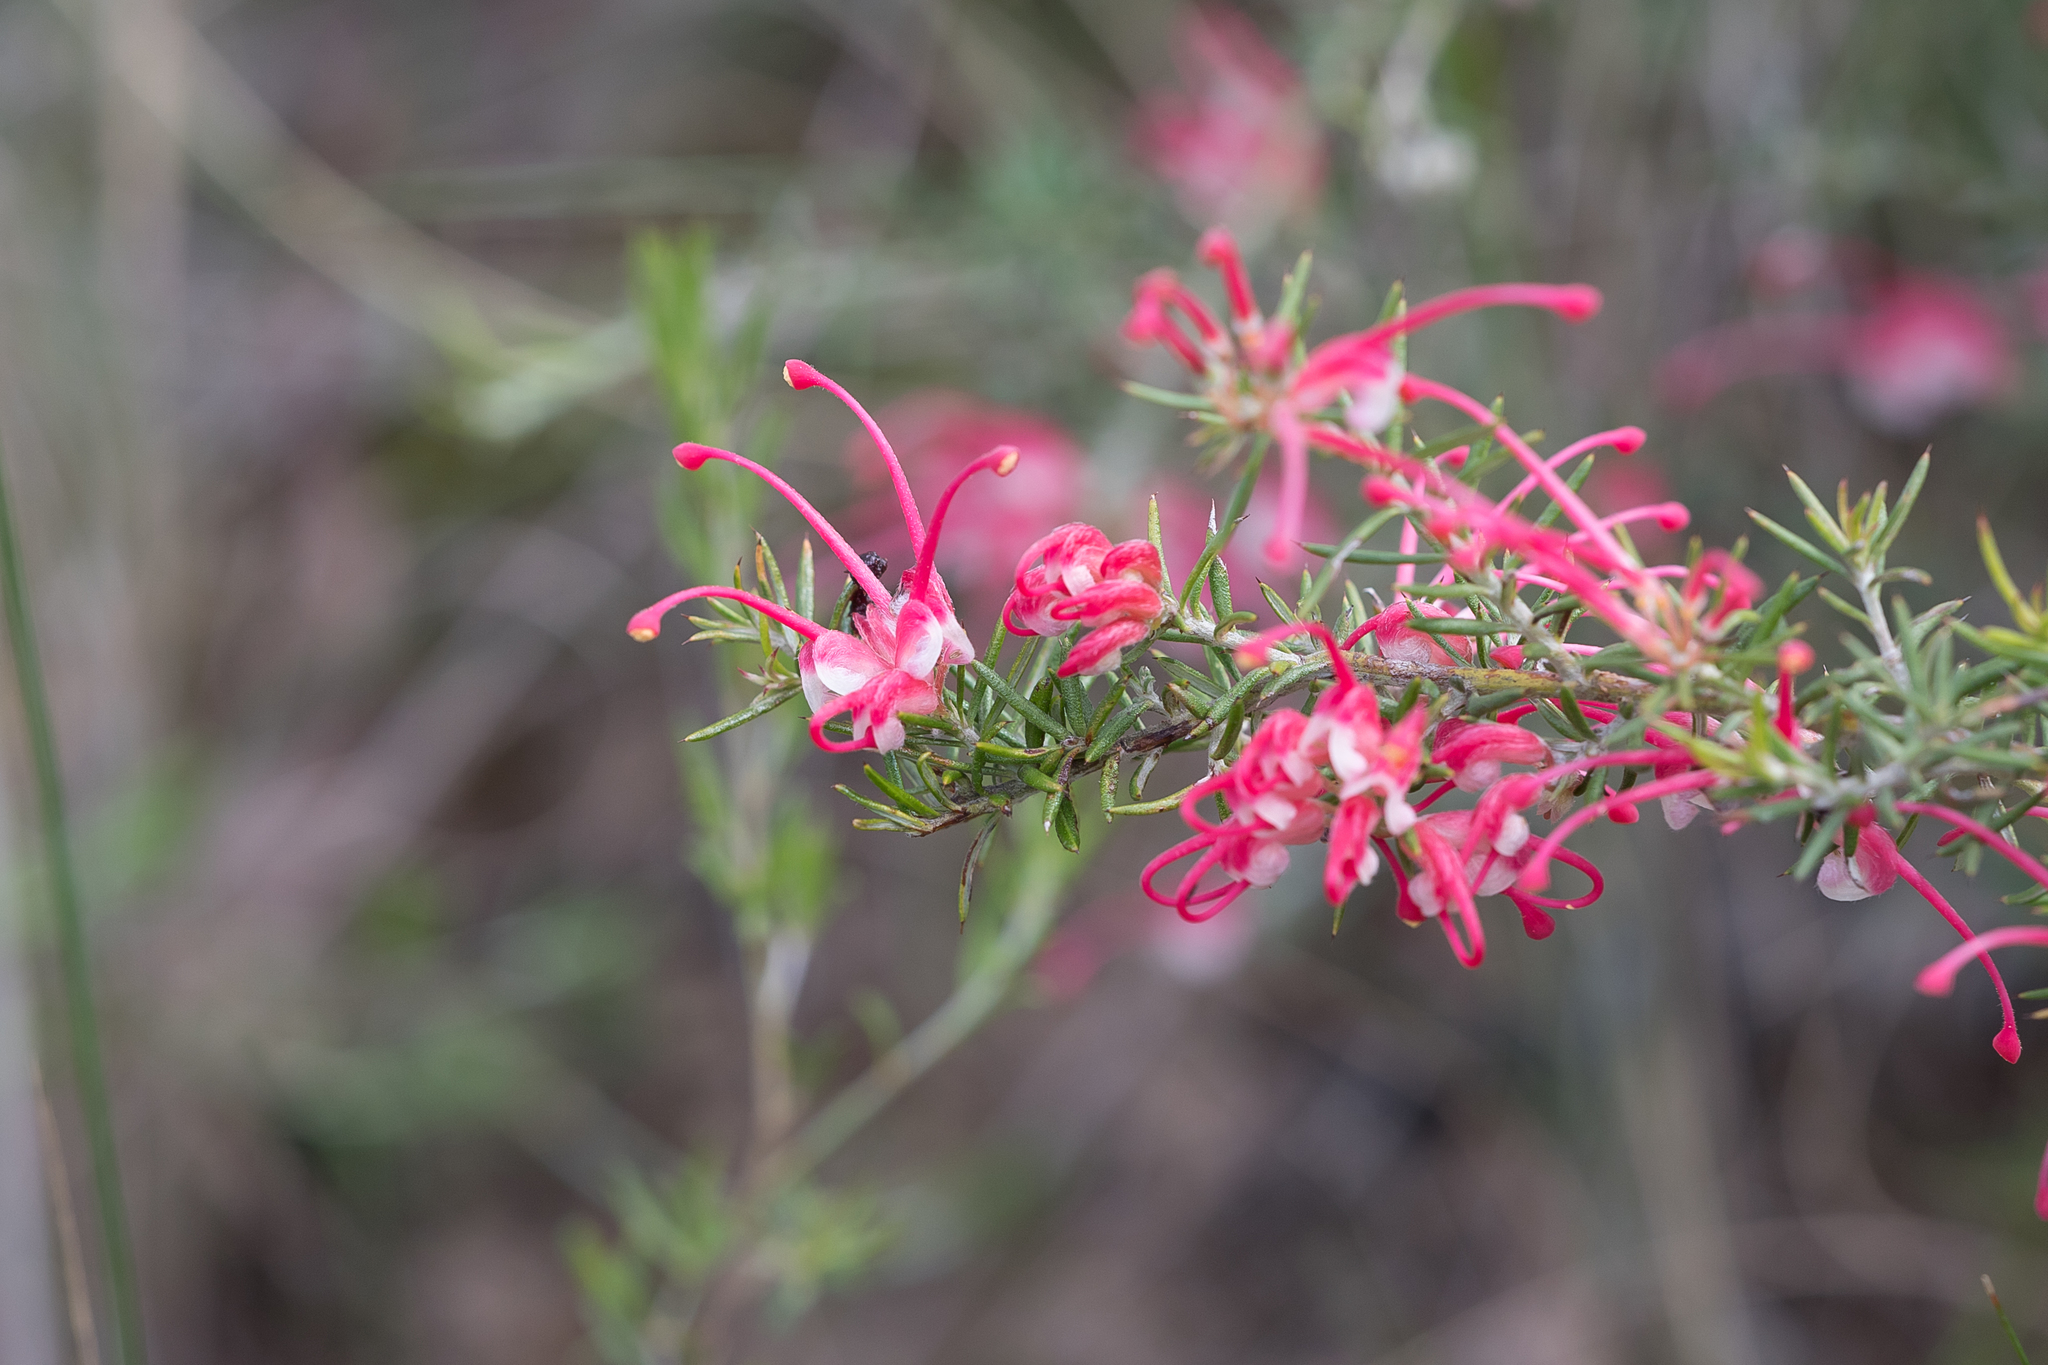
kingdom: Plantae
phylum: Tracheophyta
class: Magnoliopsida
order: Proteales
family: Proteaceae
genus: Grevillea
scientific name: Grevillea lavandulacea
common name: Lavender grevillea
